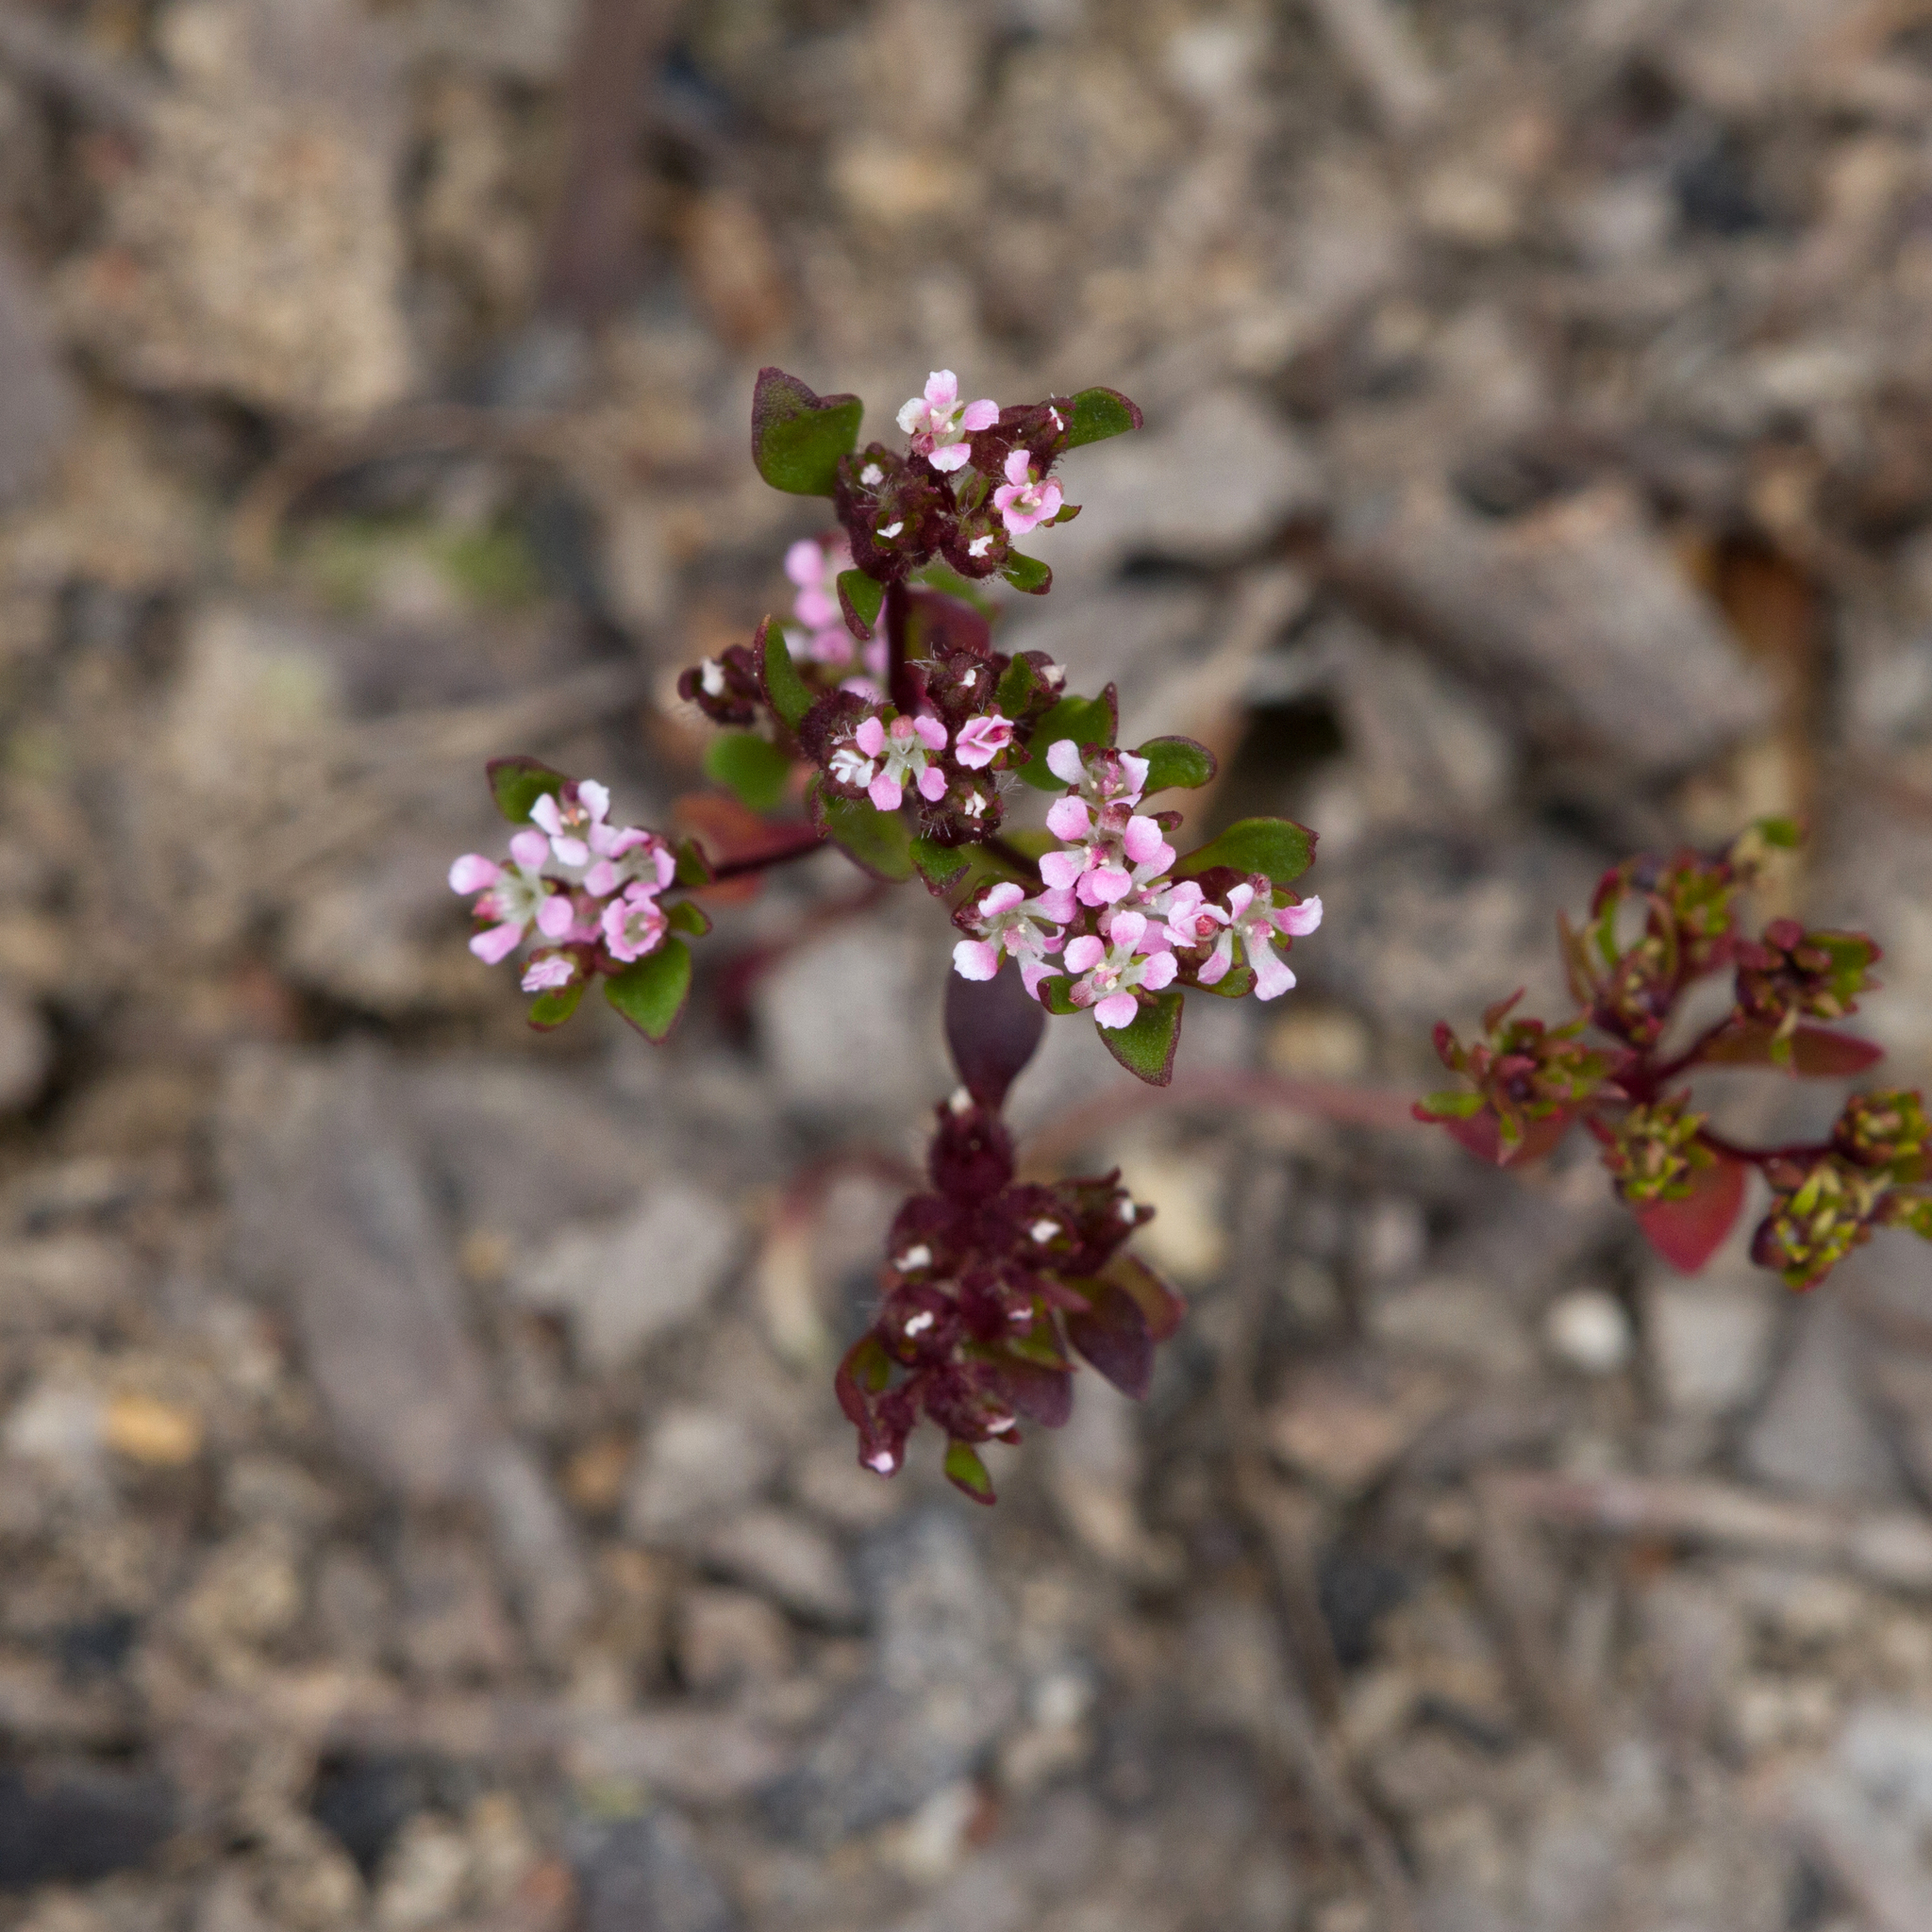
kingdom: Plantae
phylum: Tracheophyta
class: Magnoliopsida
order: Asterales
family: Stylidiaceae
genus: Levenhookia
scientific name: Levenhookia pusilla
